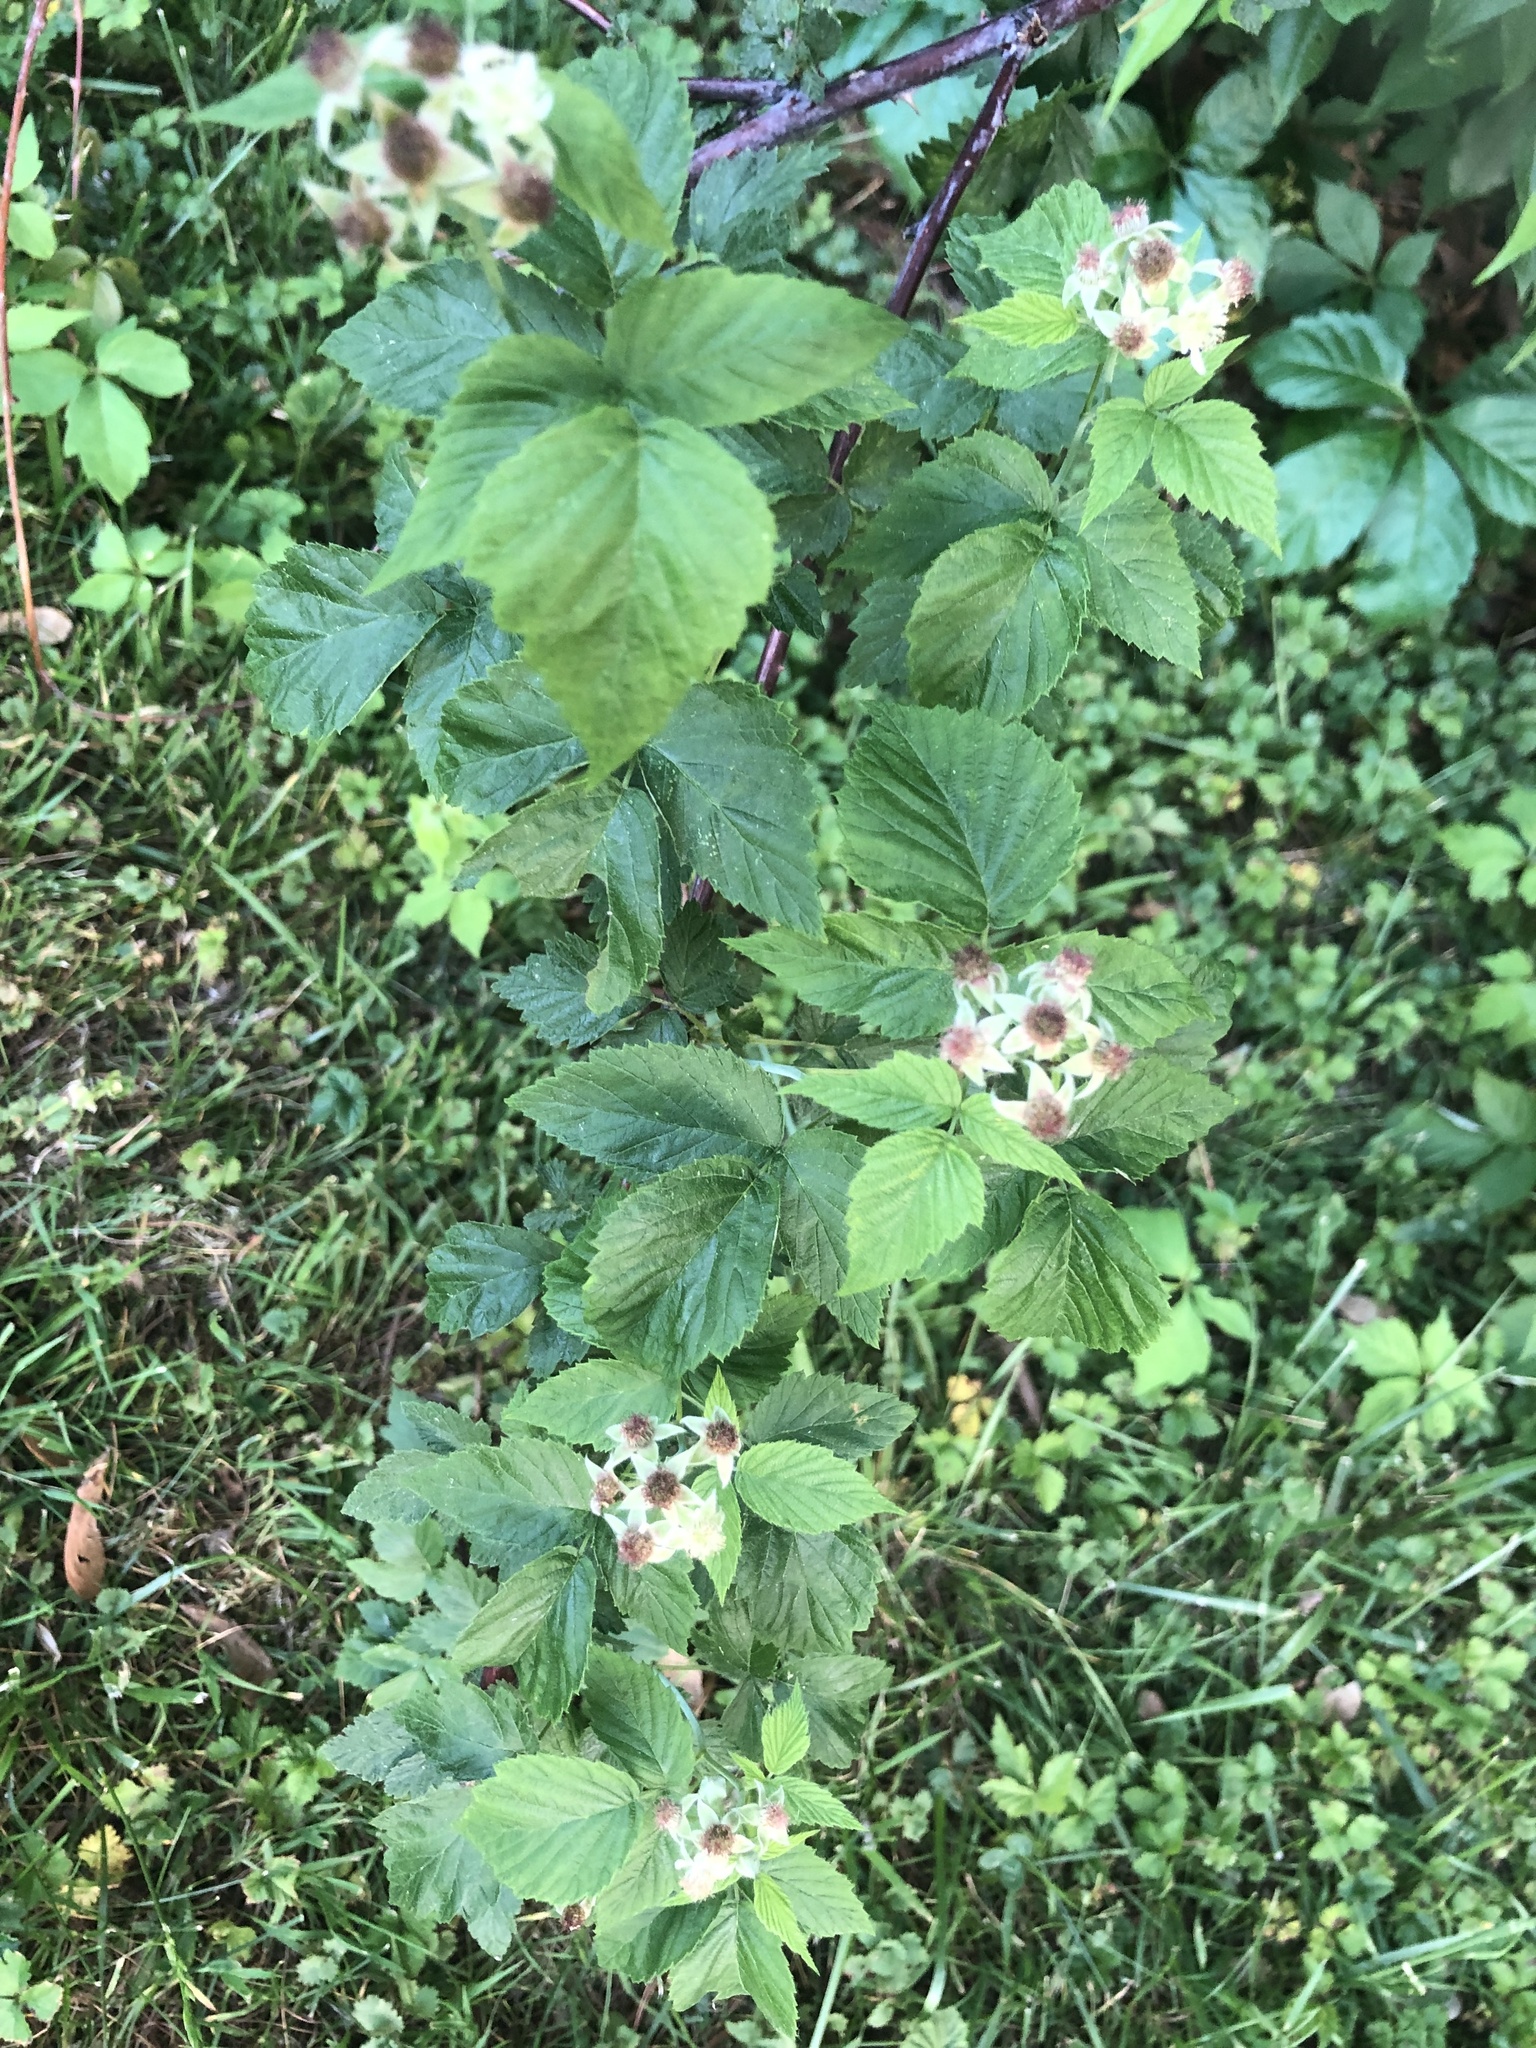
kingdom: Plantae
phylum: Tracheophyta
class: Magnoliopsida
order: Rosales
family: Rosaceae
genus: Rubus
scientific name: Rubus occidentalis
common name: Black raspberry
